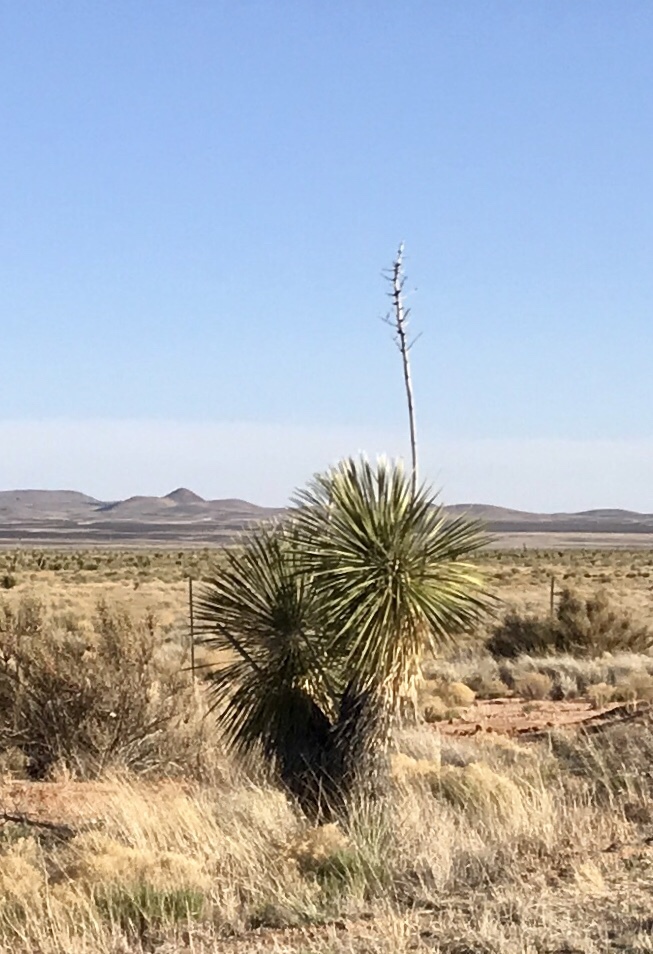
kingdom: Plantae
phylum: Tracheophyta
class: Liliopsida
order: Asparagales
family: Asparagaceae
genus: Yucca
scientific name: Yucca elata
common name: Palmella
